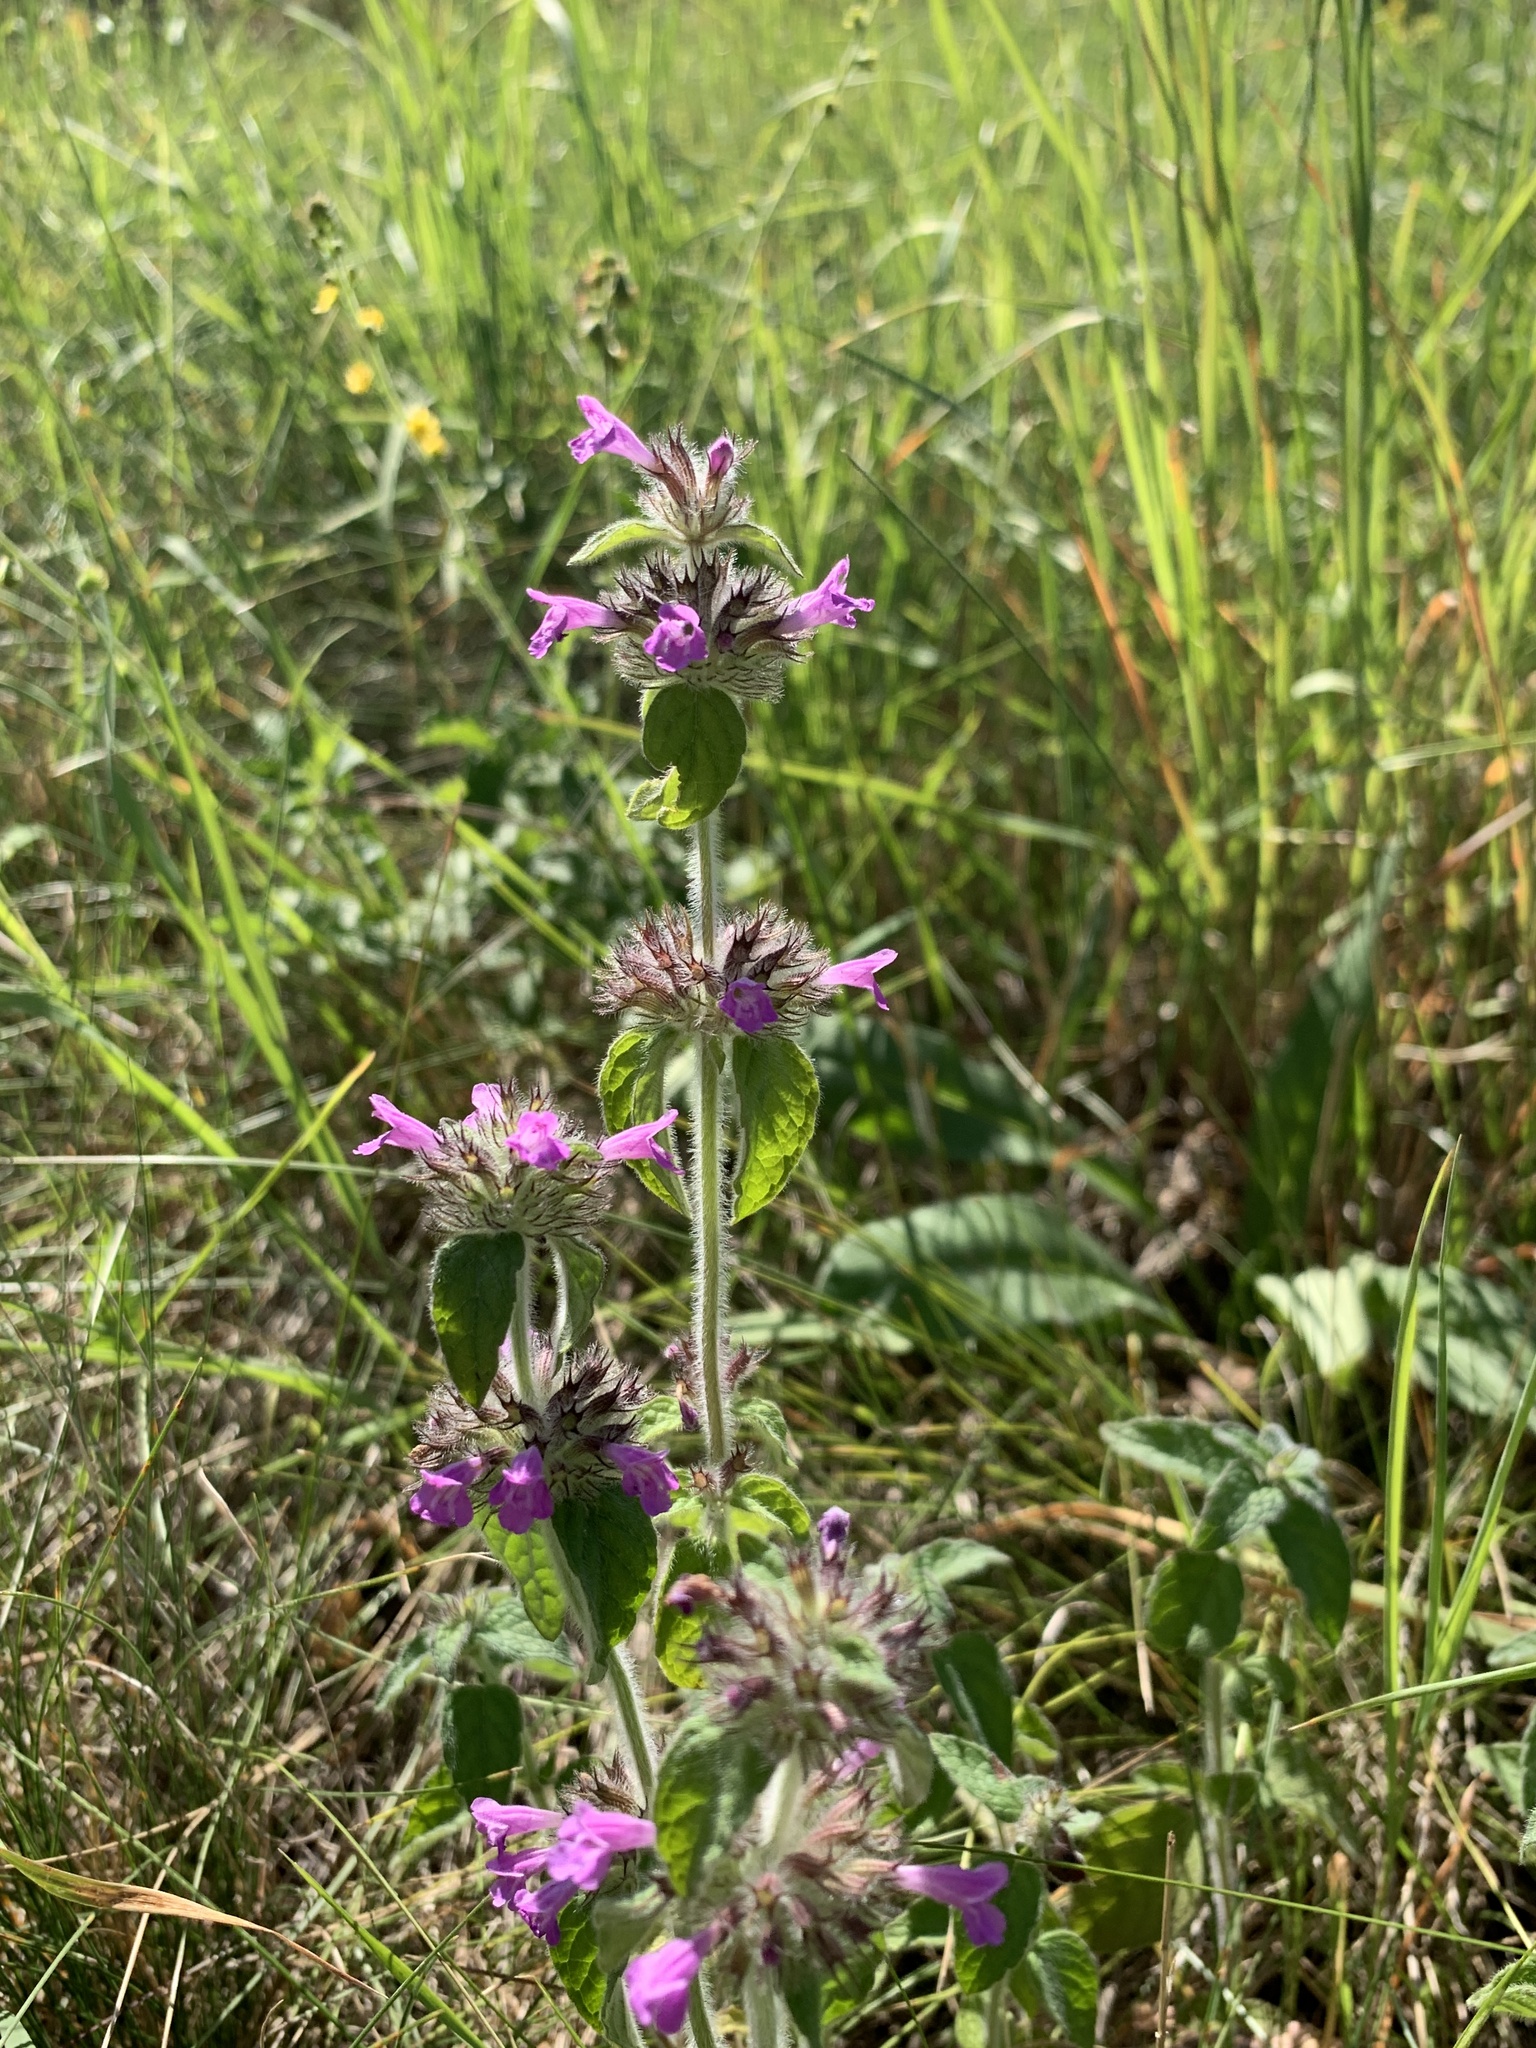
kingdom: Plantae
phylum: Tracheophyta
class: Magnoliopsida
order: Lamiales
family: Lamiaceae
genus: Clinopodium
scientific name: Clinopodium vulgare
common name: Wild basil
